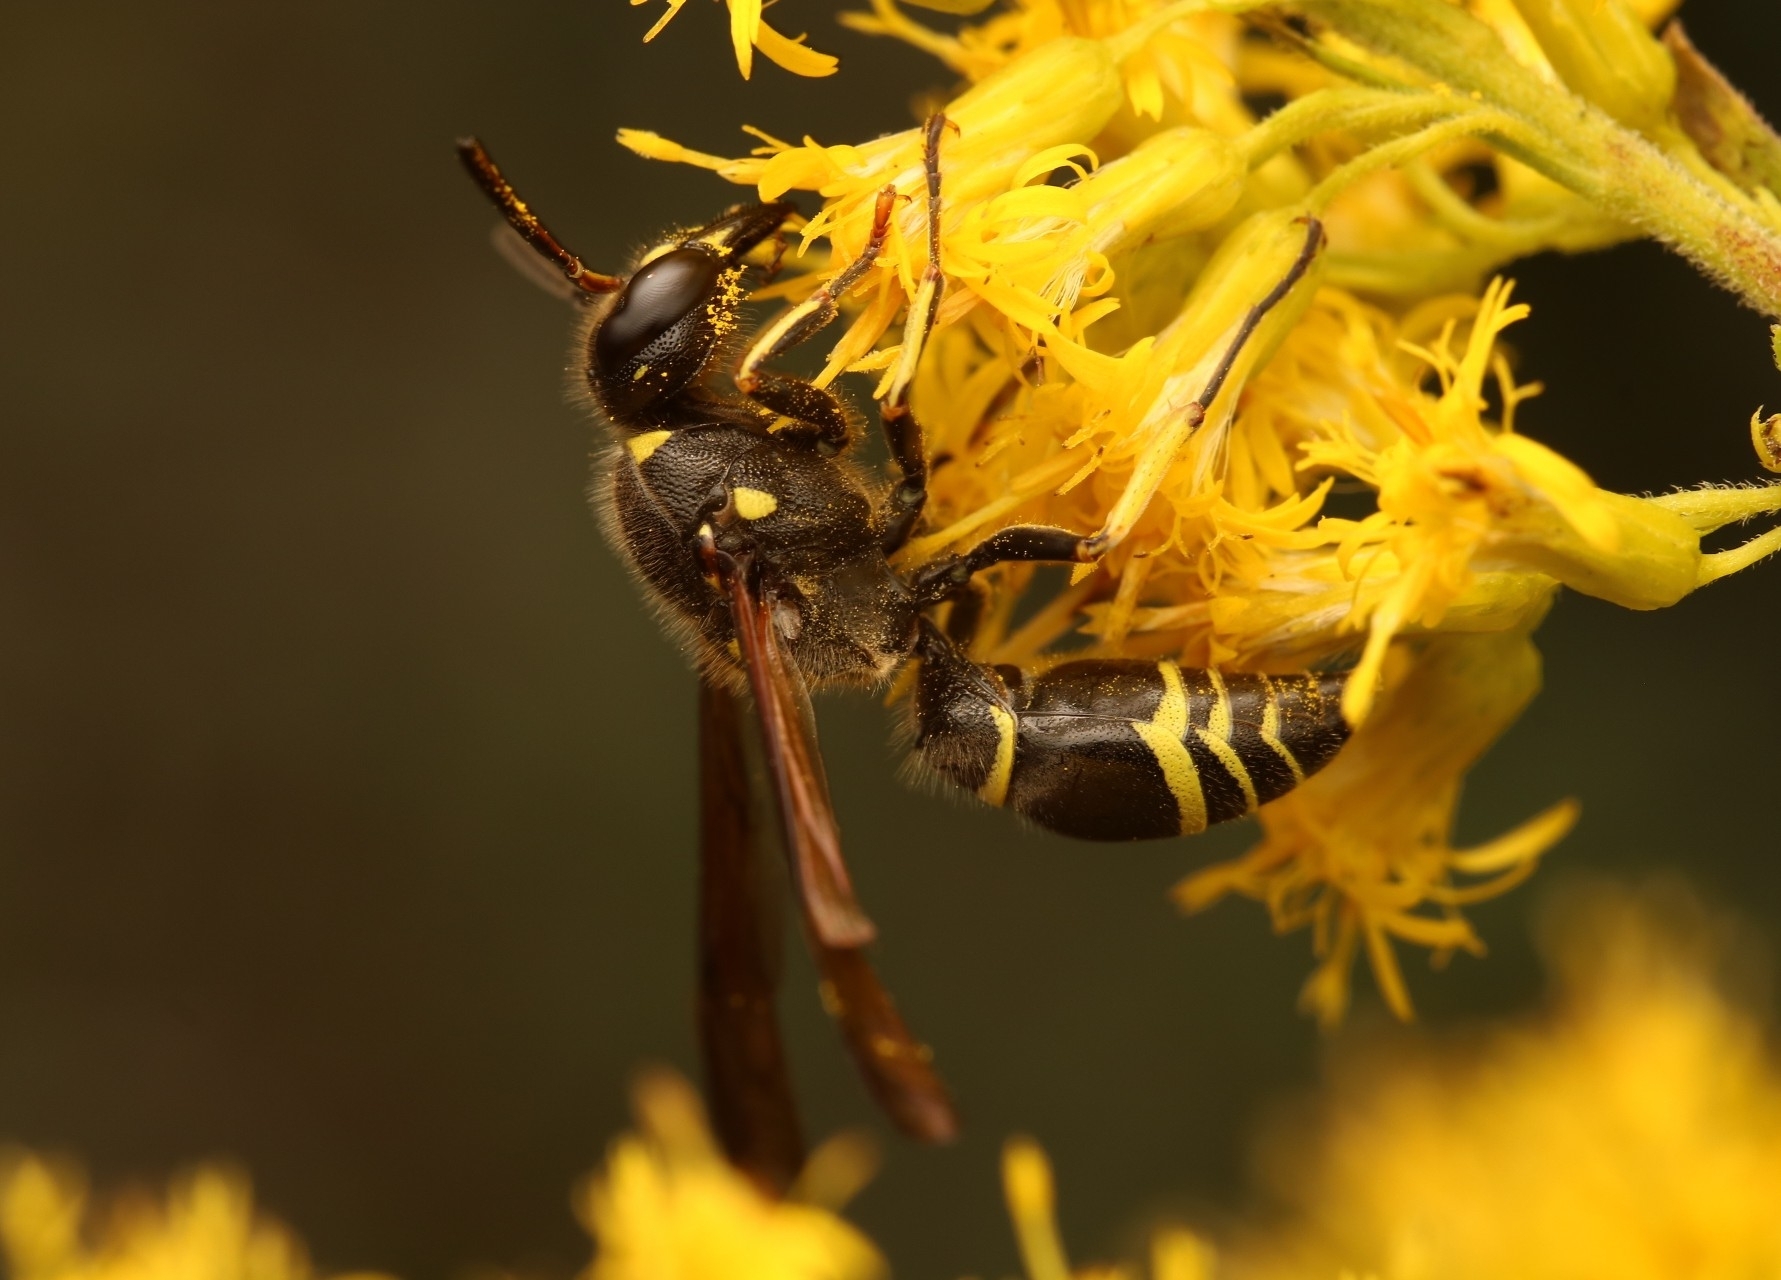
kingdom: Animalia
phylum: Arthropoda
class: Insecta
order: Hymenoptera
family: Vespidae
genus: Ancistrocerus
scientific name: Ancistrocerus
